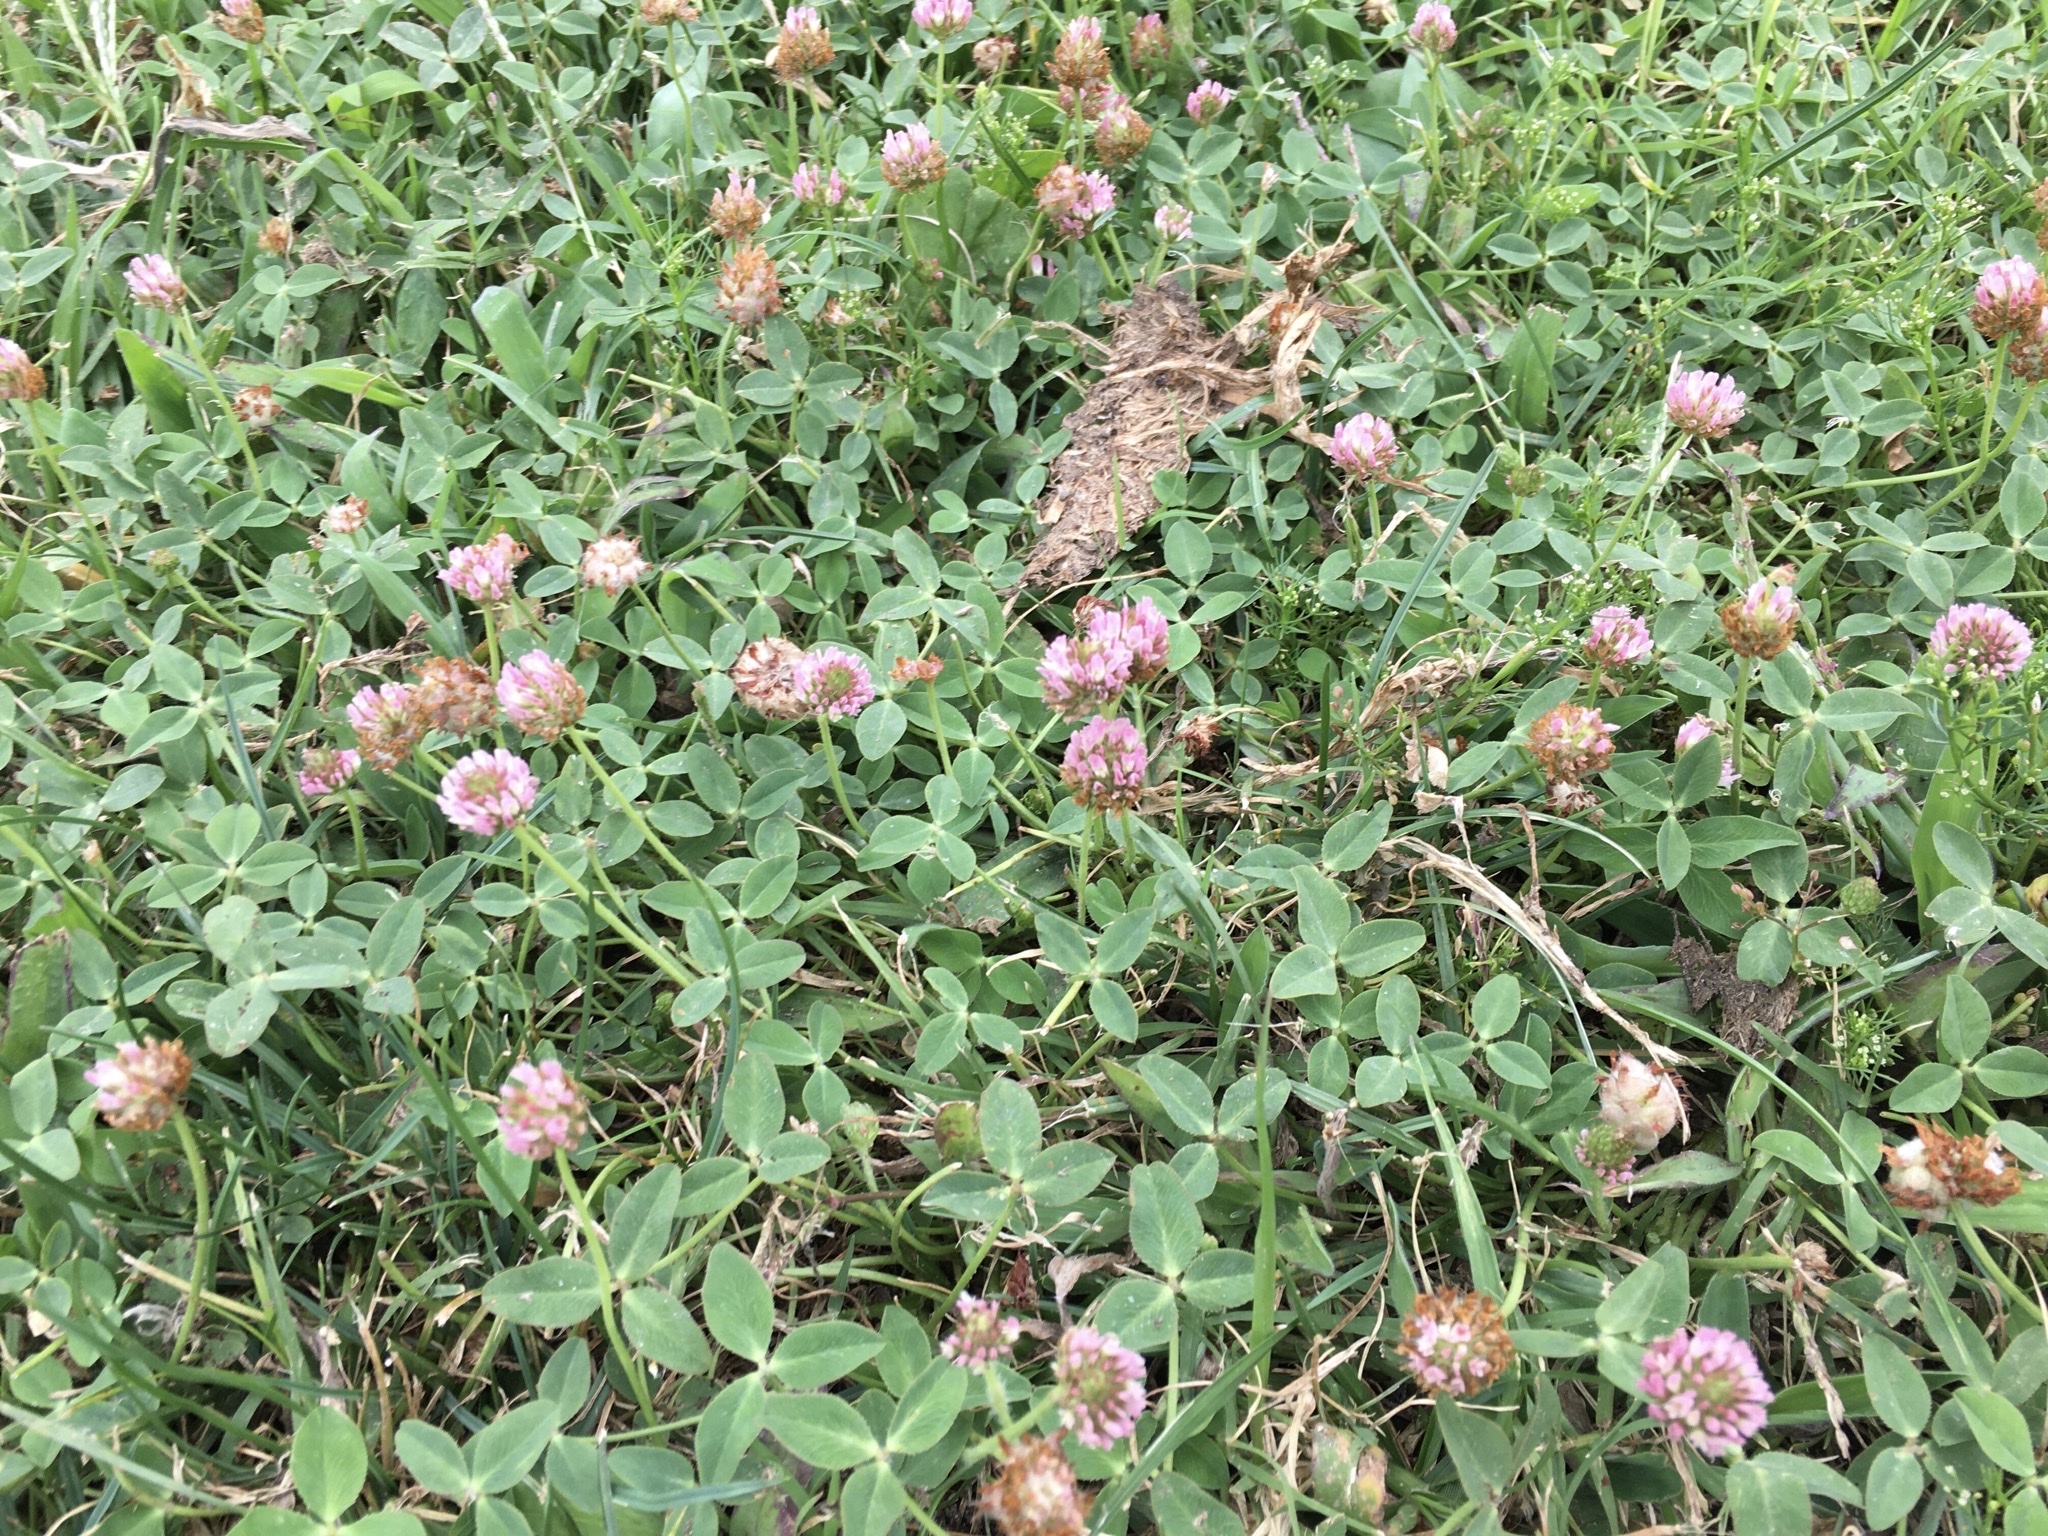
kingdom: Plantae
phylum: Tracheophyta
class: Magnoliopsida
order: Fabales
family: Fabaceae
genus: Trifolium
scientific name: Trifolium fragiferum
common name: Strawberry clover
